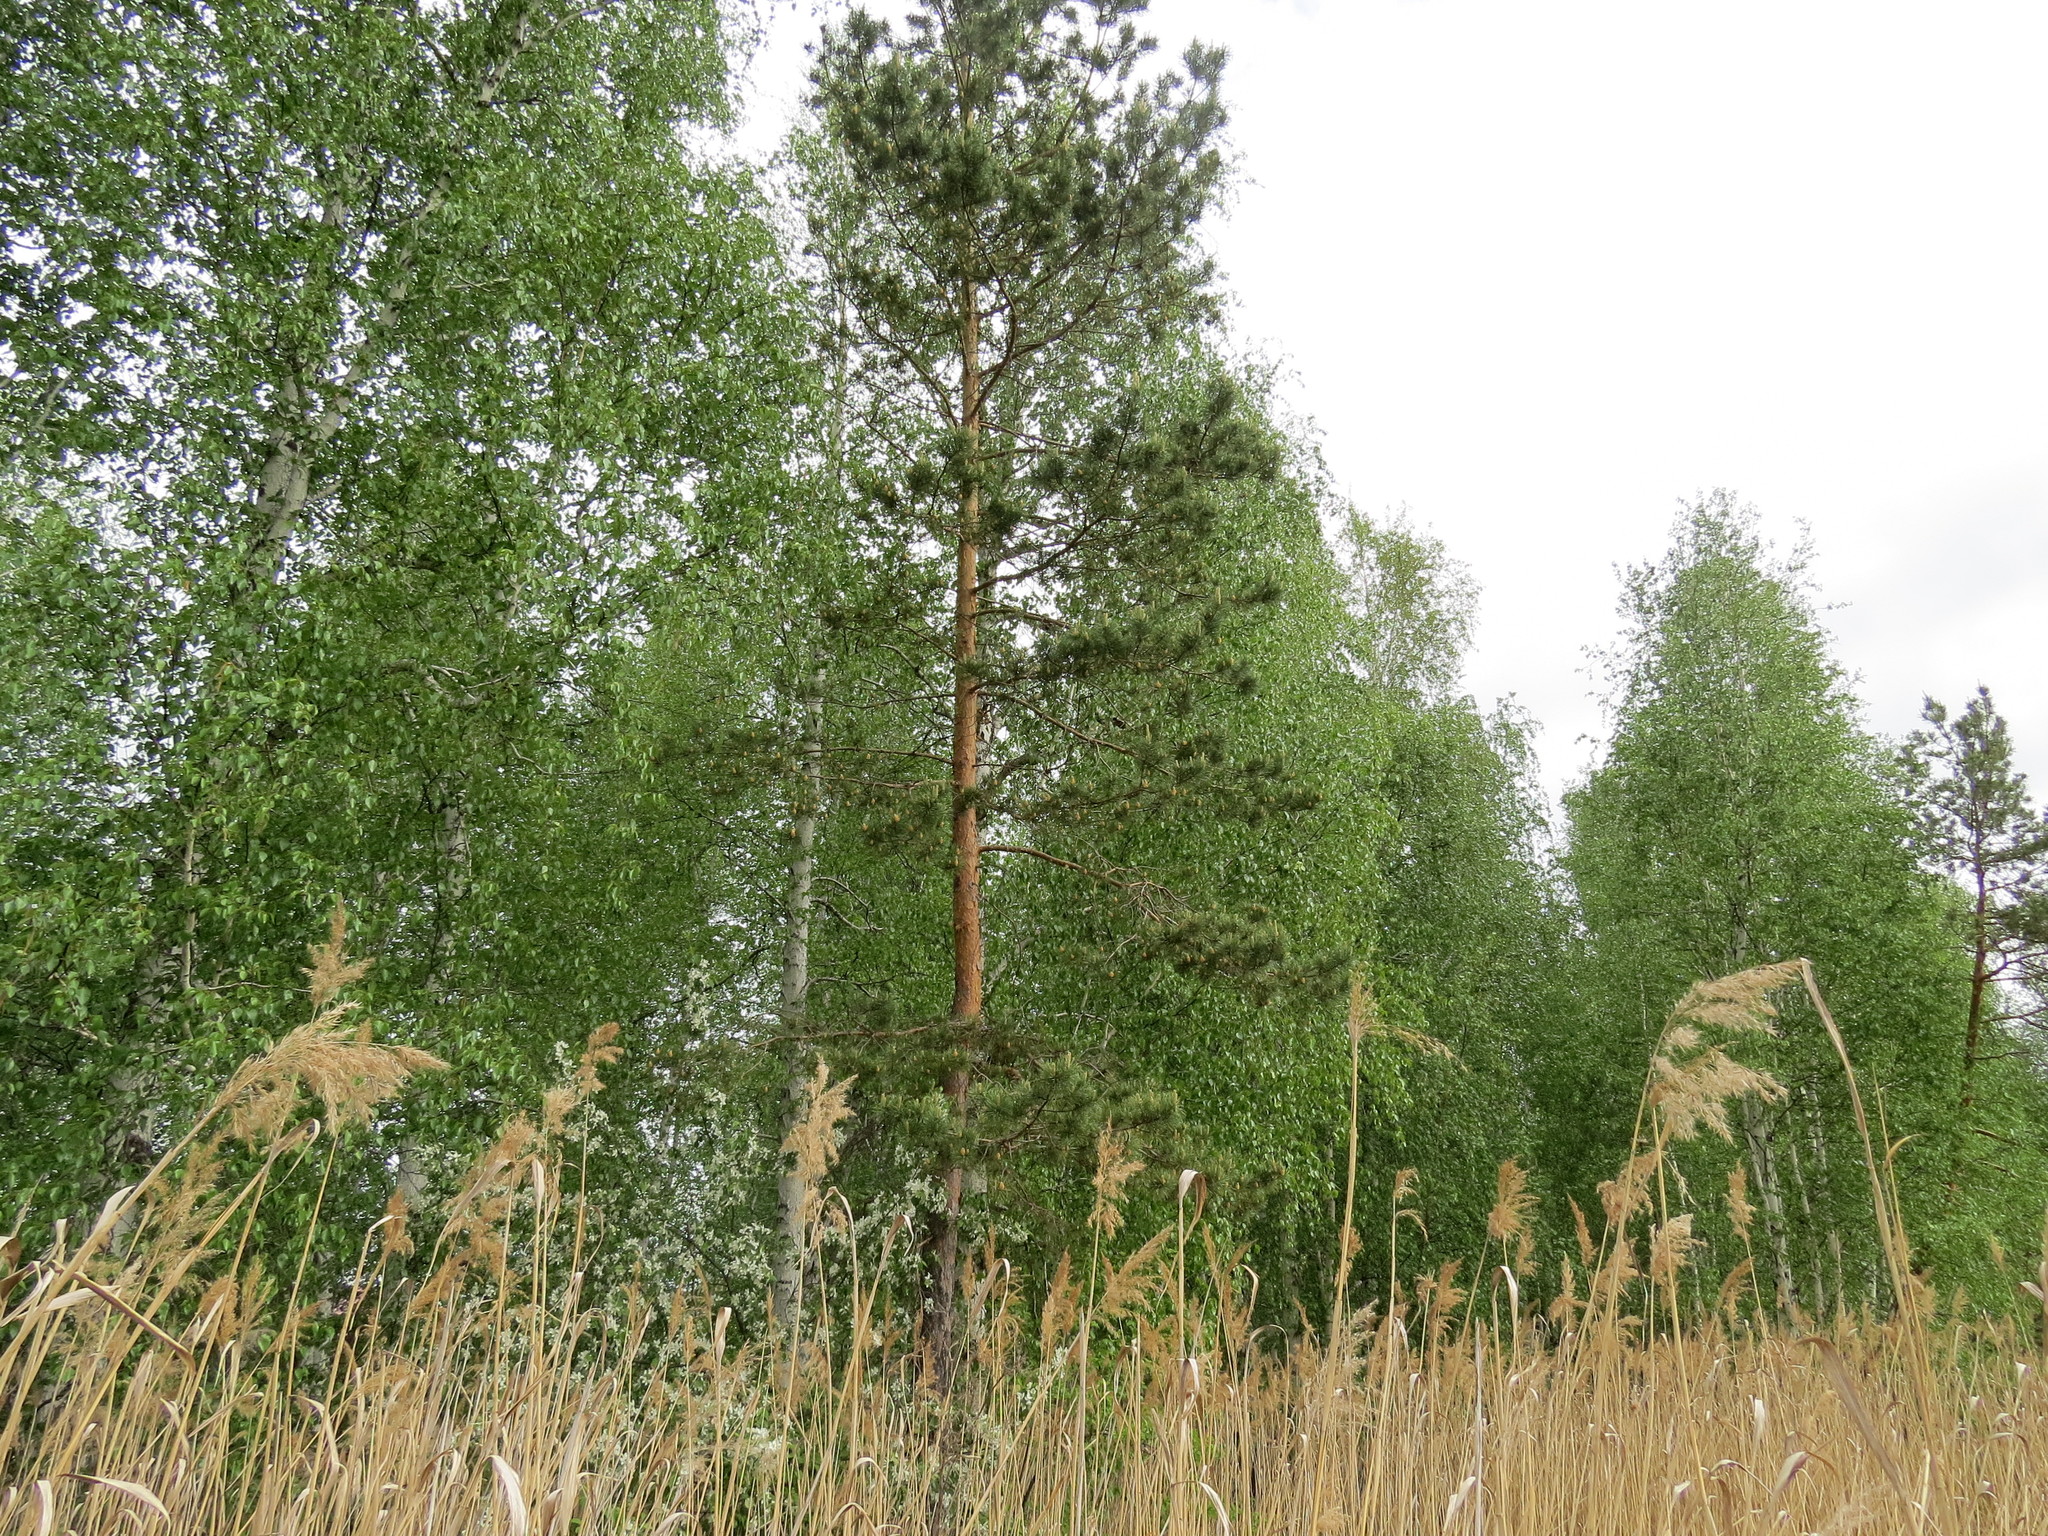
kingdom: Plantae
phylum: Tracheophyta
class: Pinopsida
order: Pinales
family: Pinaceae
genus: Pinus
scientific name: Pinus sylvestris
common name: Scots pine
